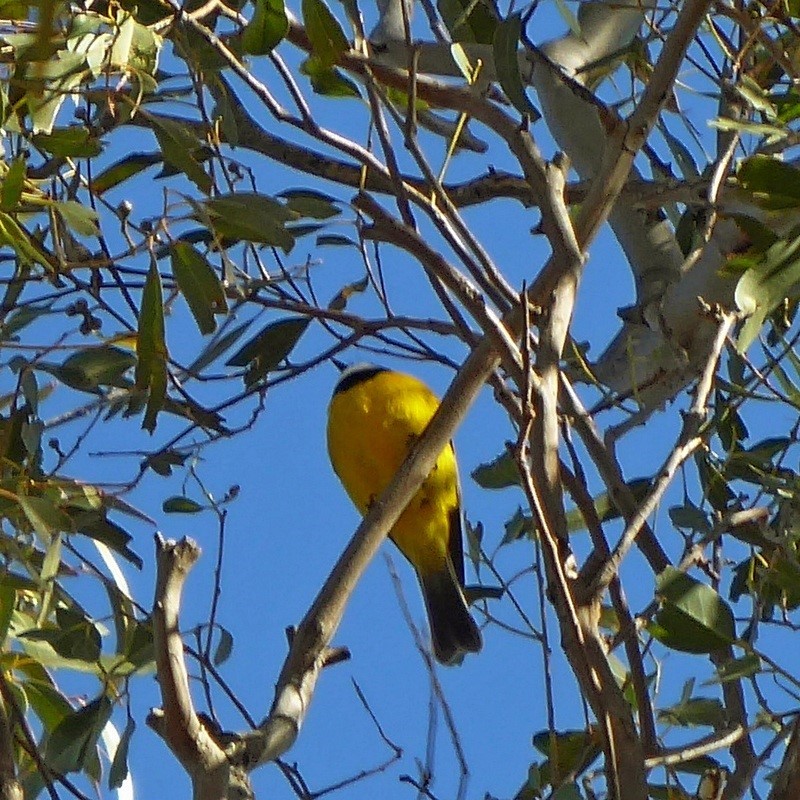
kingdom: Animalia
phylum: Chordata
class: Aves
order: Passeriformes
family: Pachycephalidae
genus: Pachycephala
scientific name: Pachycephala pectoralis
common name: Australian golden whistler
